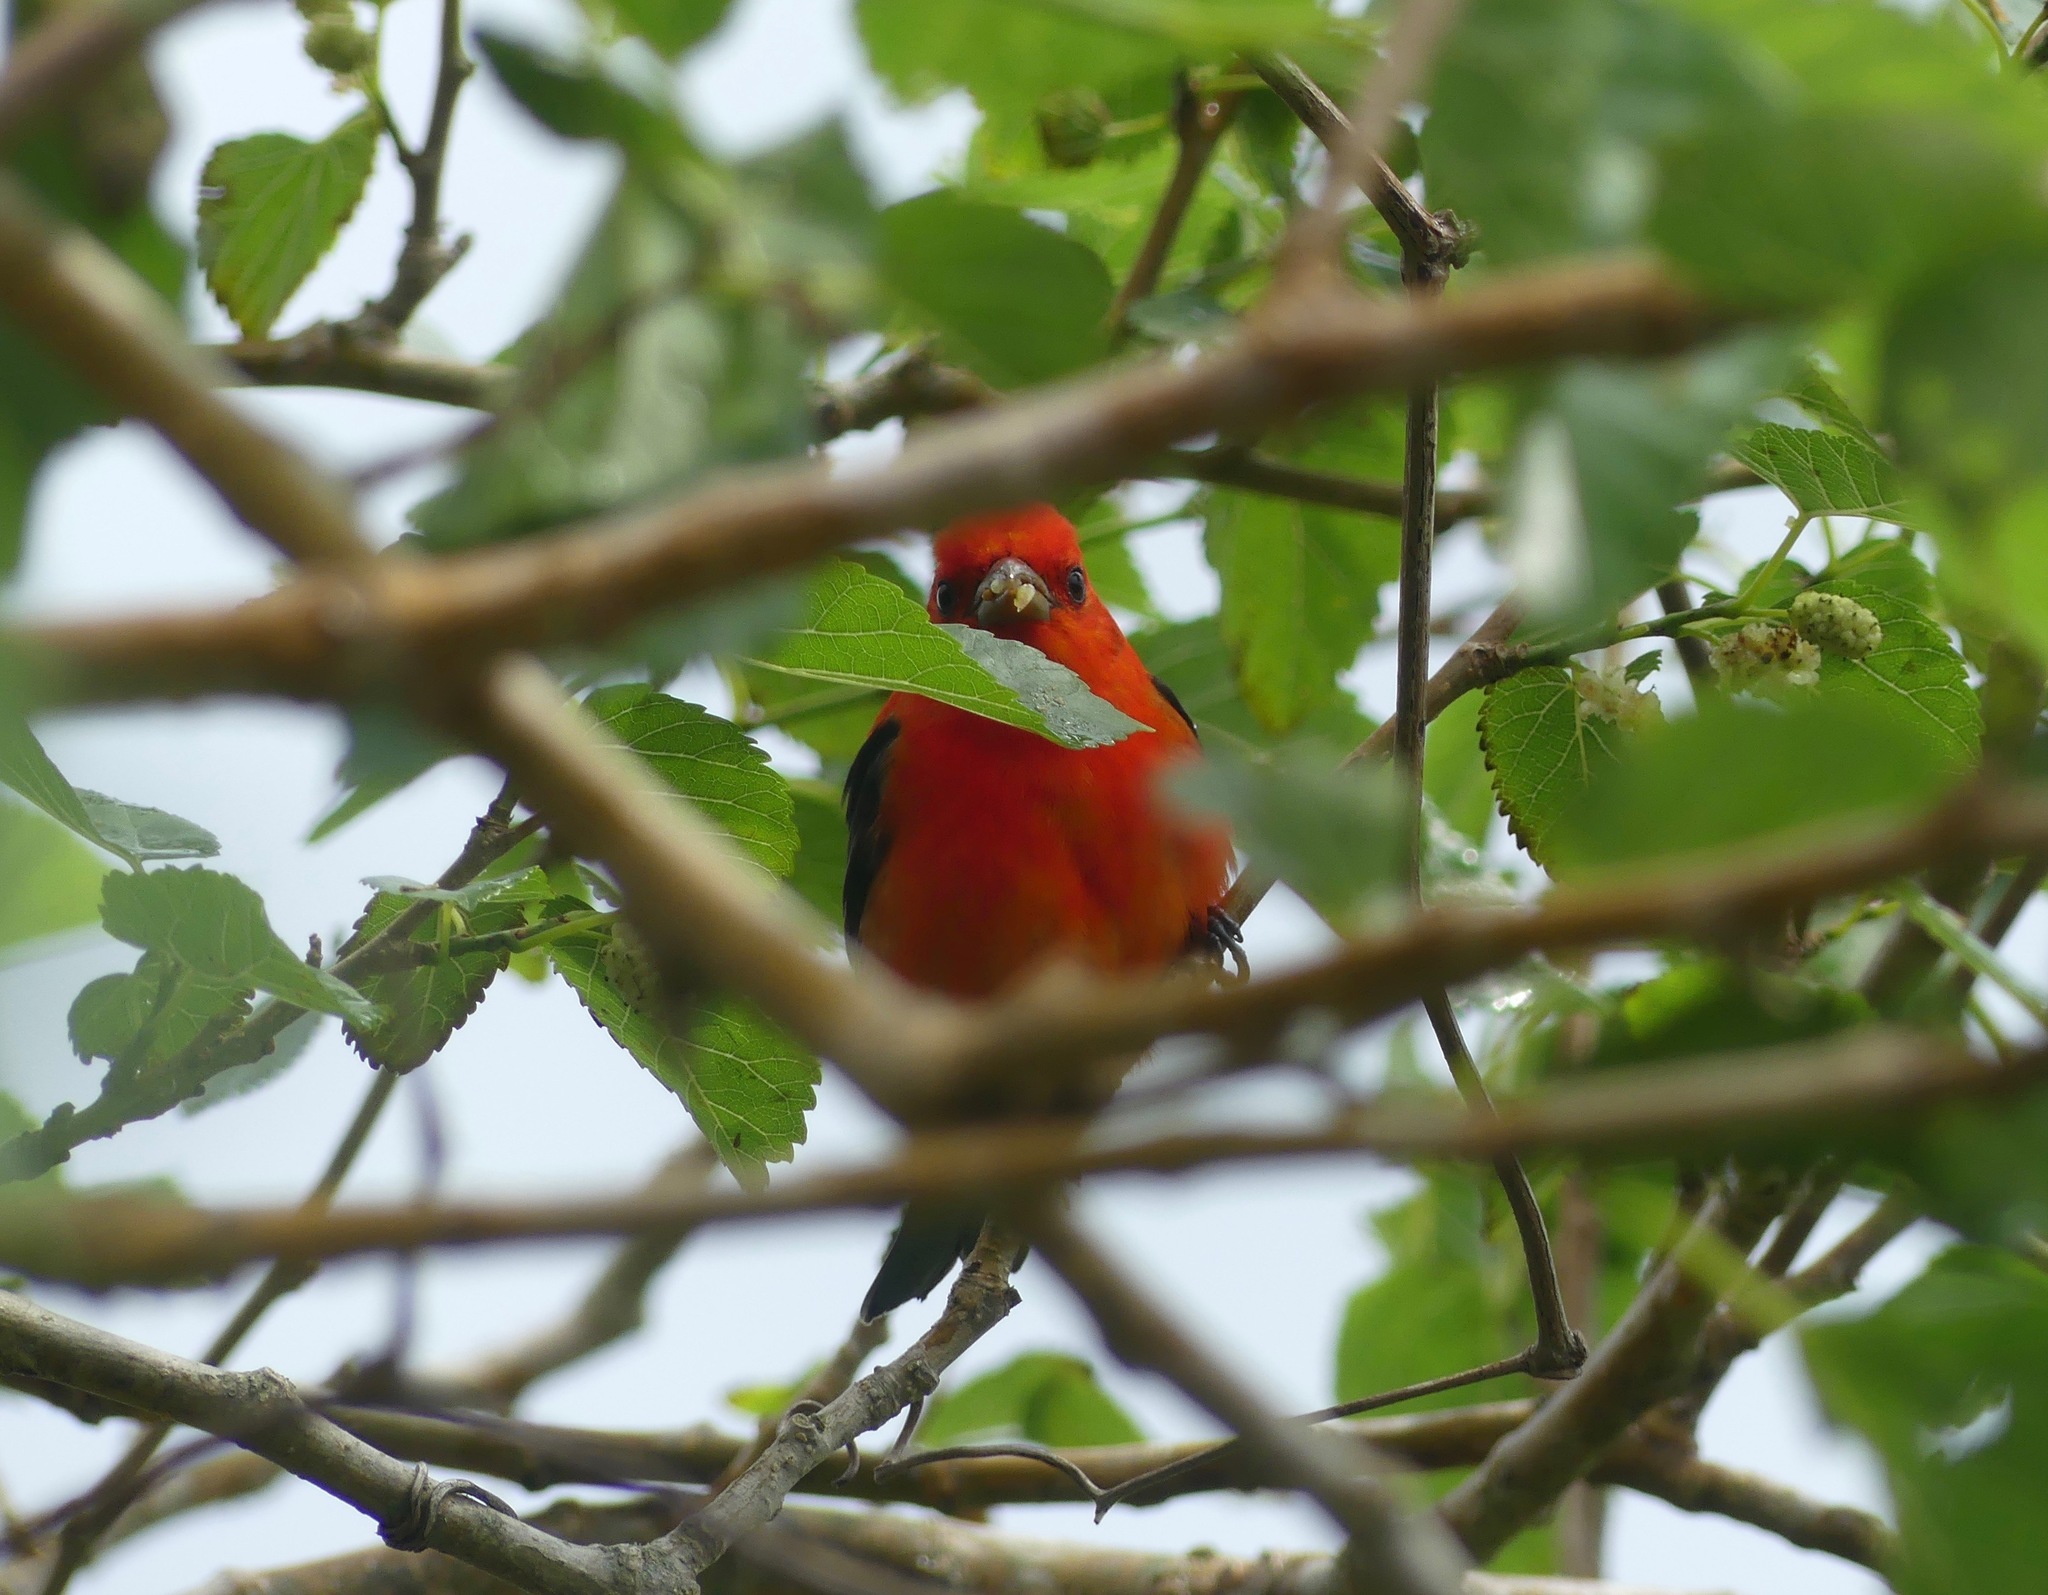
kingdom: Animalia
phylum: Chordata
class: Aves
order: Passeriformes
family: Cardinalidae
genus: Piranga
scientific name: Piranga olivacea
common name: Scarlet tanager
